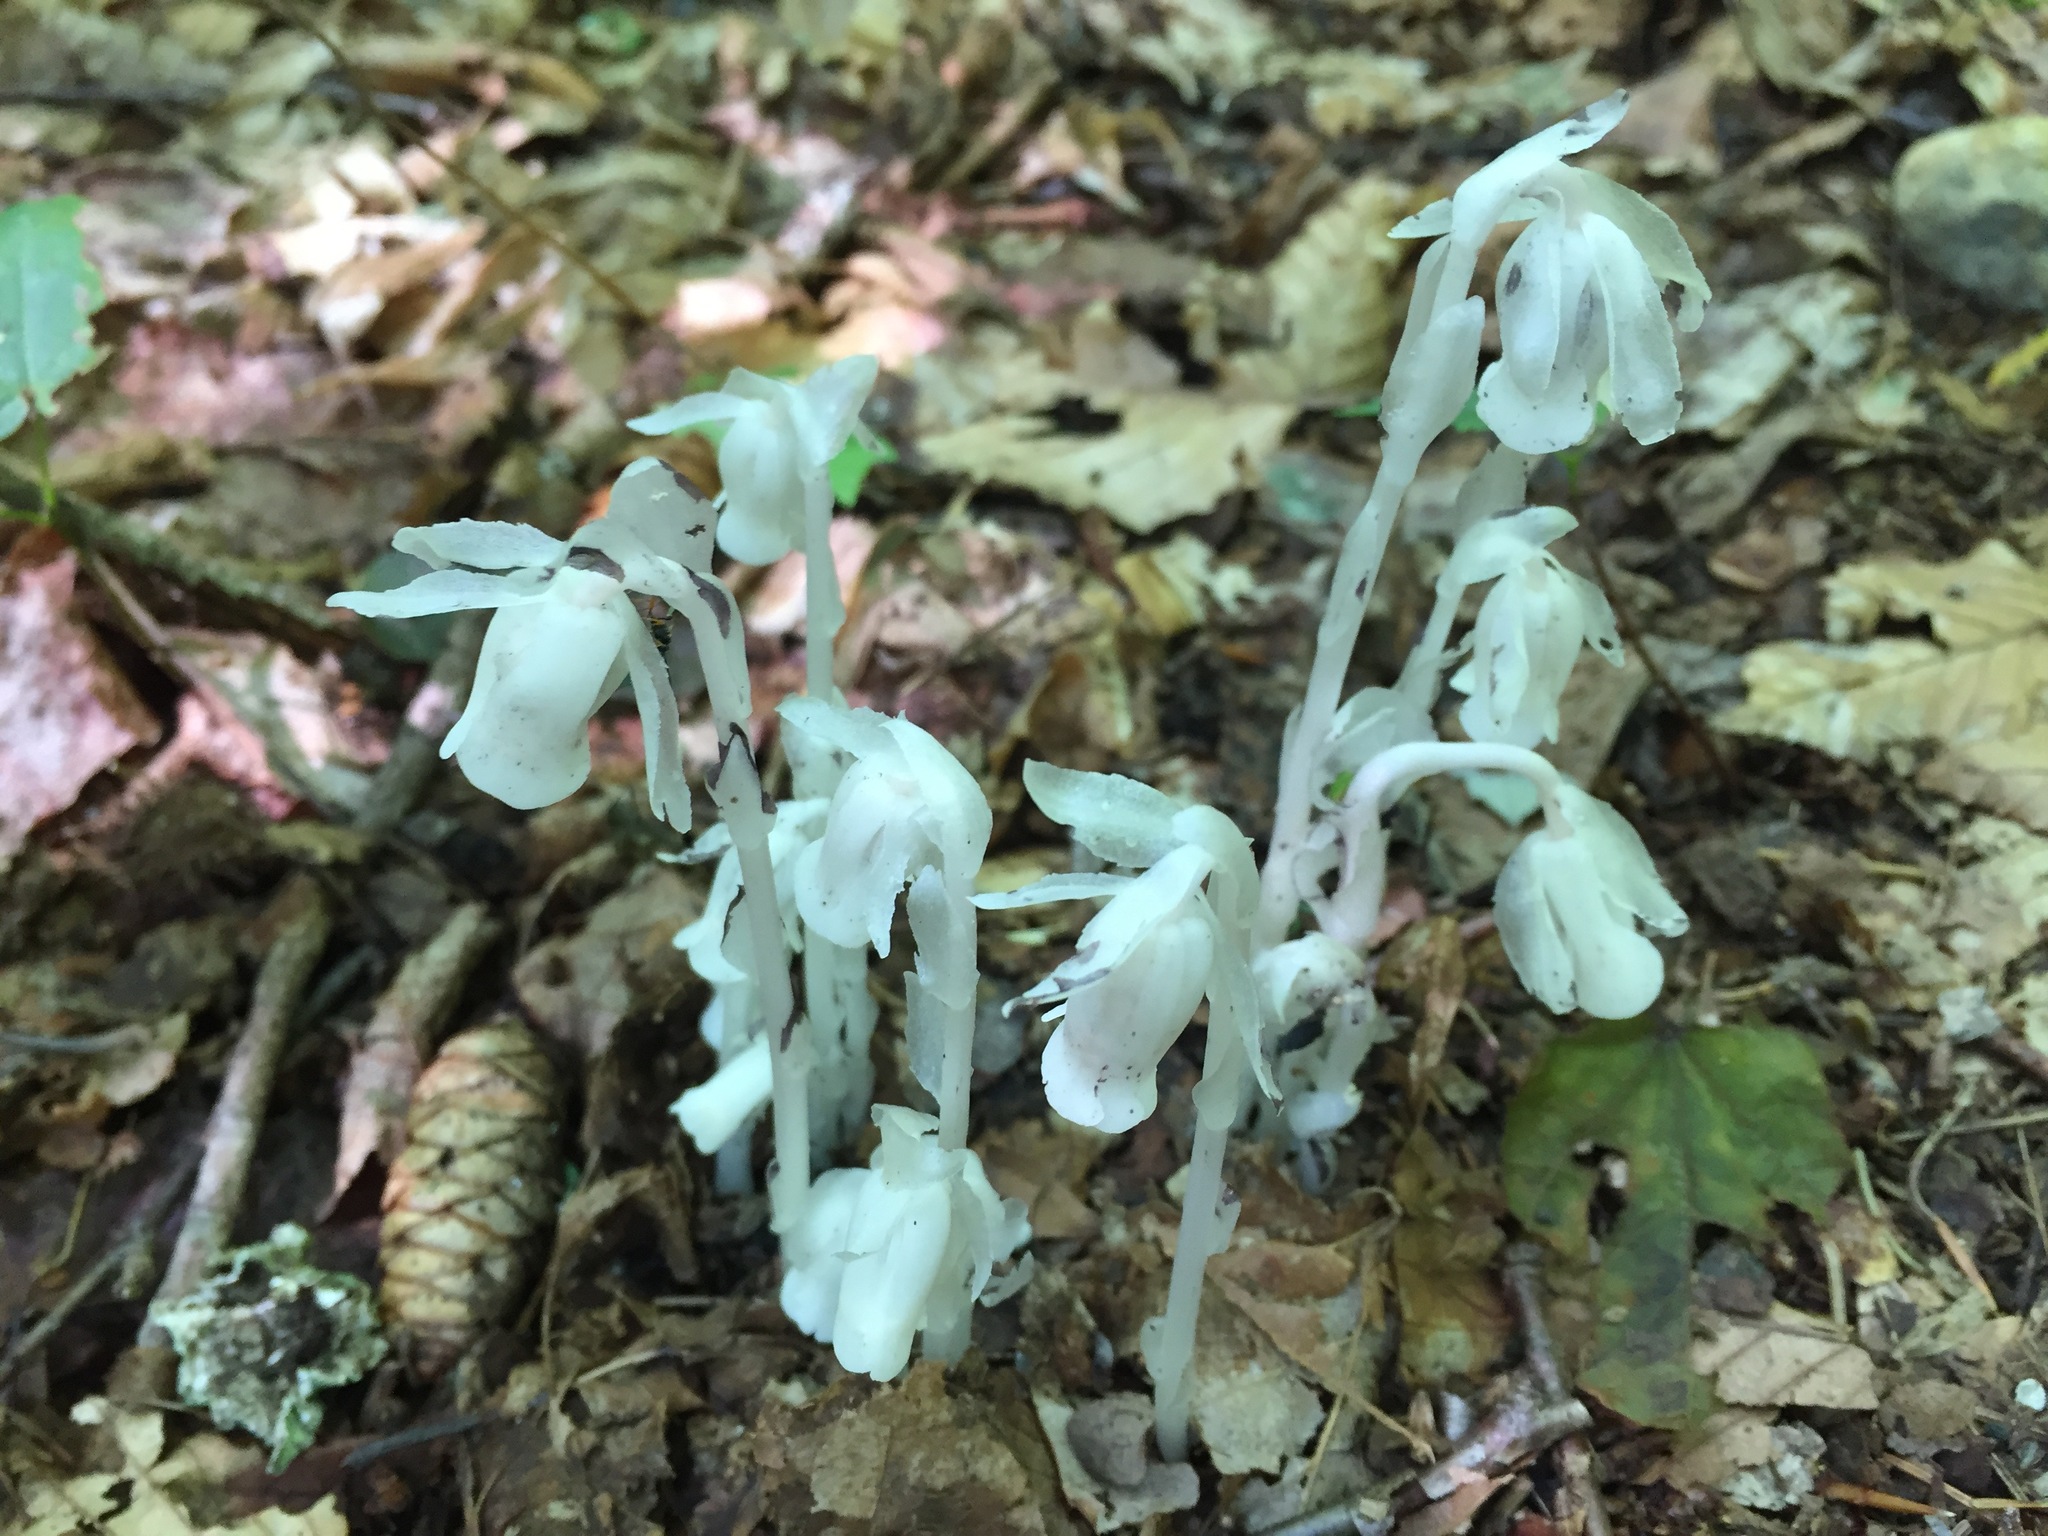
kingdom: Plantae
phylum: Tracheophyta
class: Magnoliopsida
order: Ericales
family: Ericaceae
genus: Monotropa
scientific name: Monotropa uniflora
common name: Convulsion root
